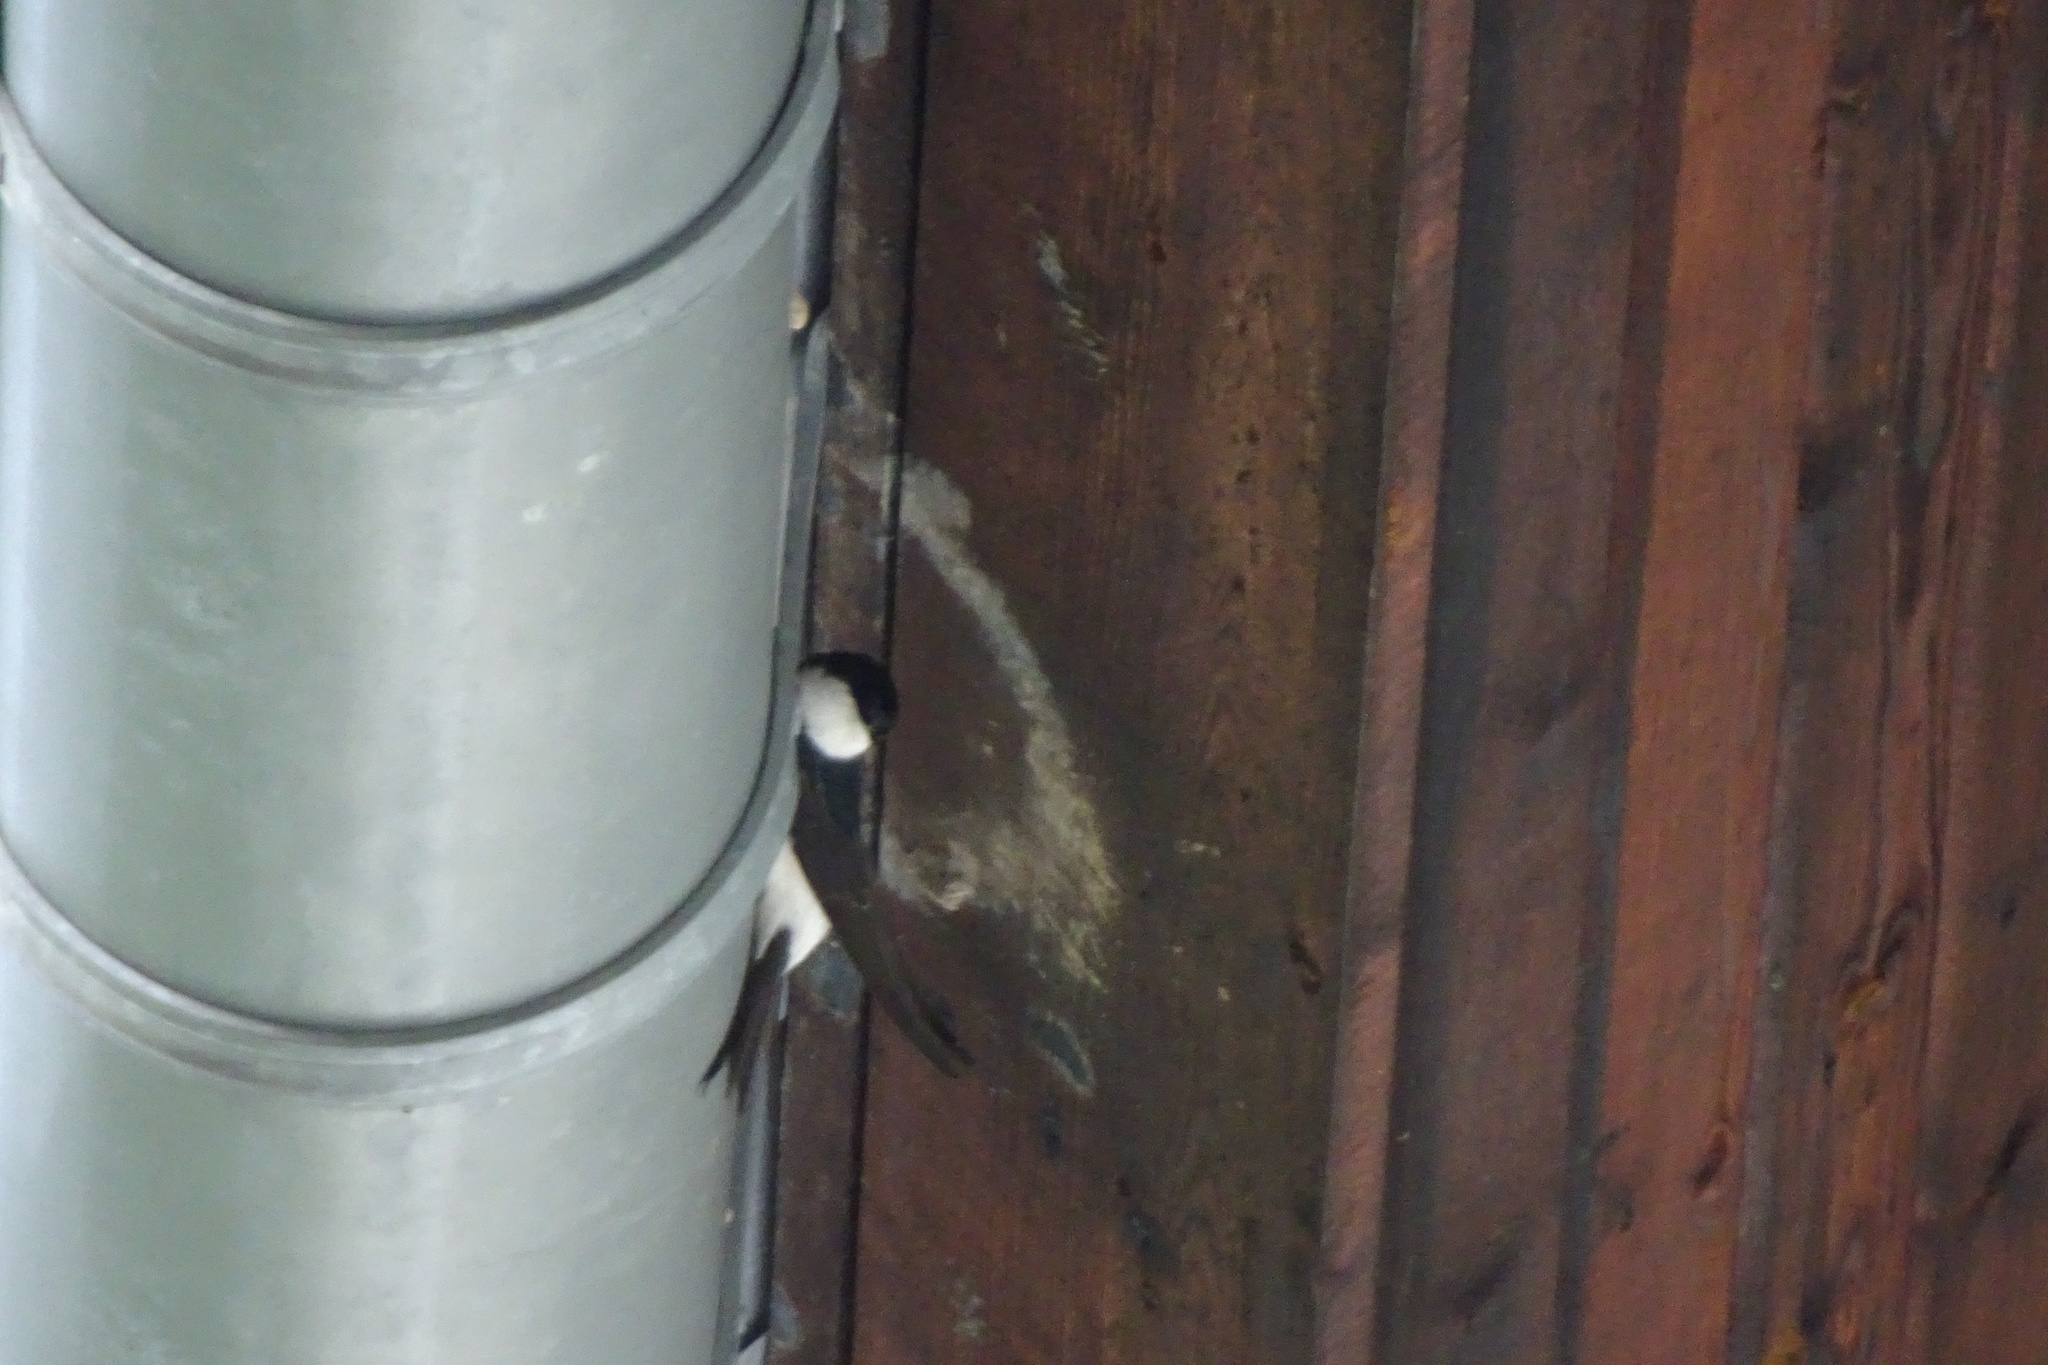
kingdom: Animalia
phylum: Chordata
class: Aves
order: Passeriformes
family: Hirundinidae
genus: Delichon
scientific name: Delichon urbicum
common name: Common house martin
